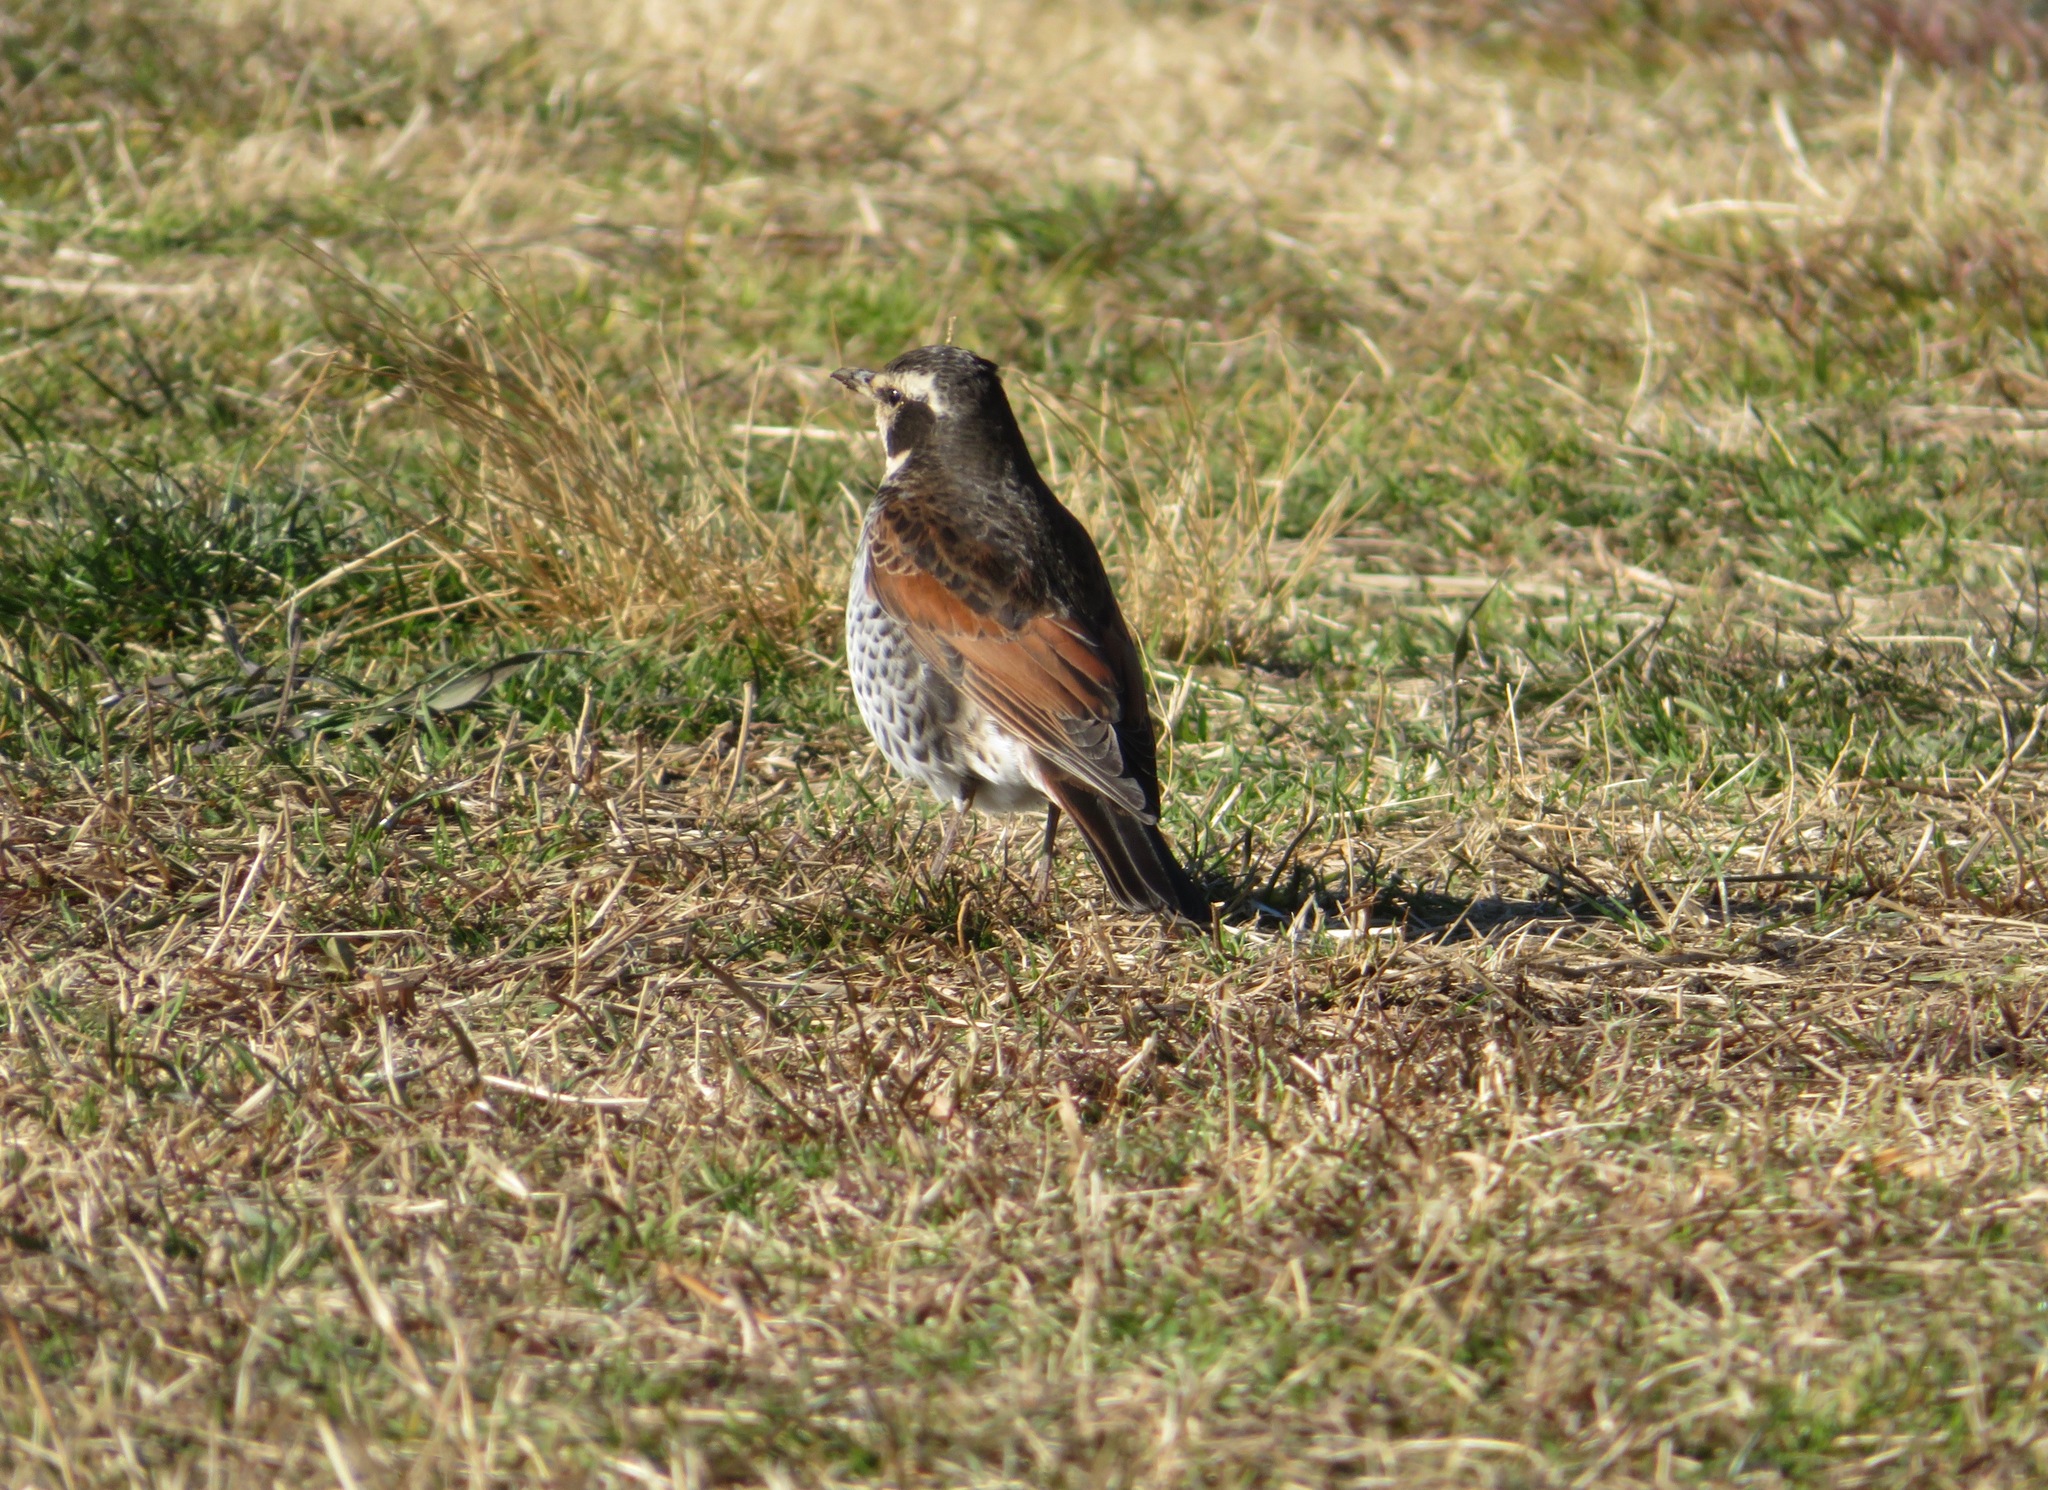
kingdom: Animalia
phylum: Chordata
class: Aves
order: Passeriformes
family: Turdidae
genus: Turdus
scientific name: Turdus eunomus
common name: Dusky thrush
